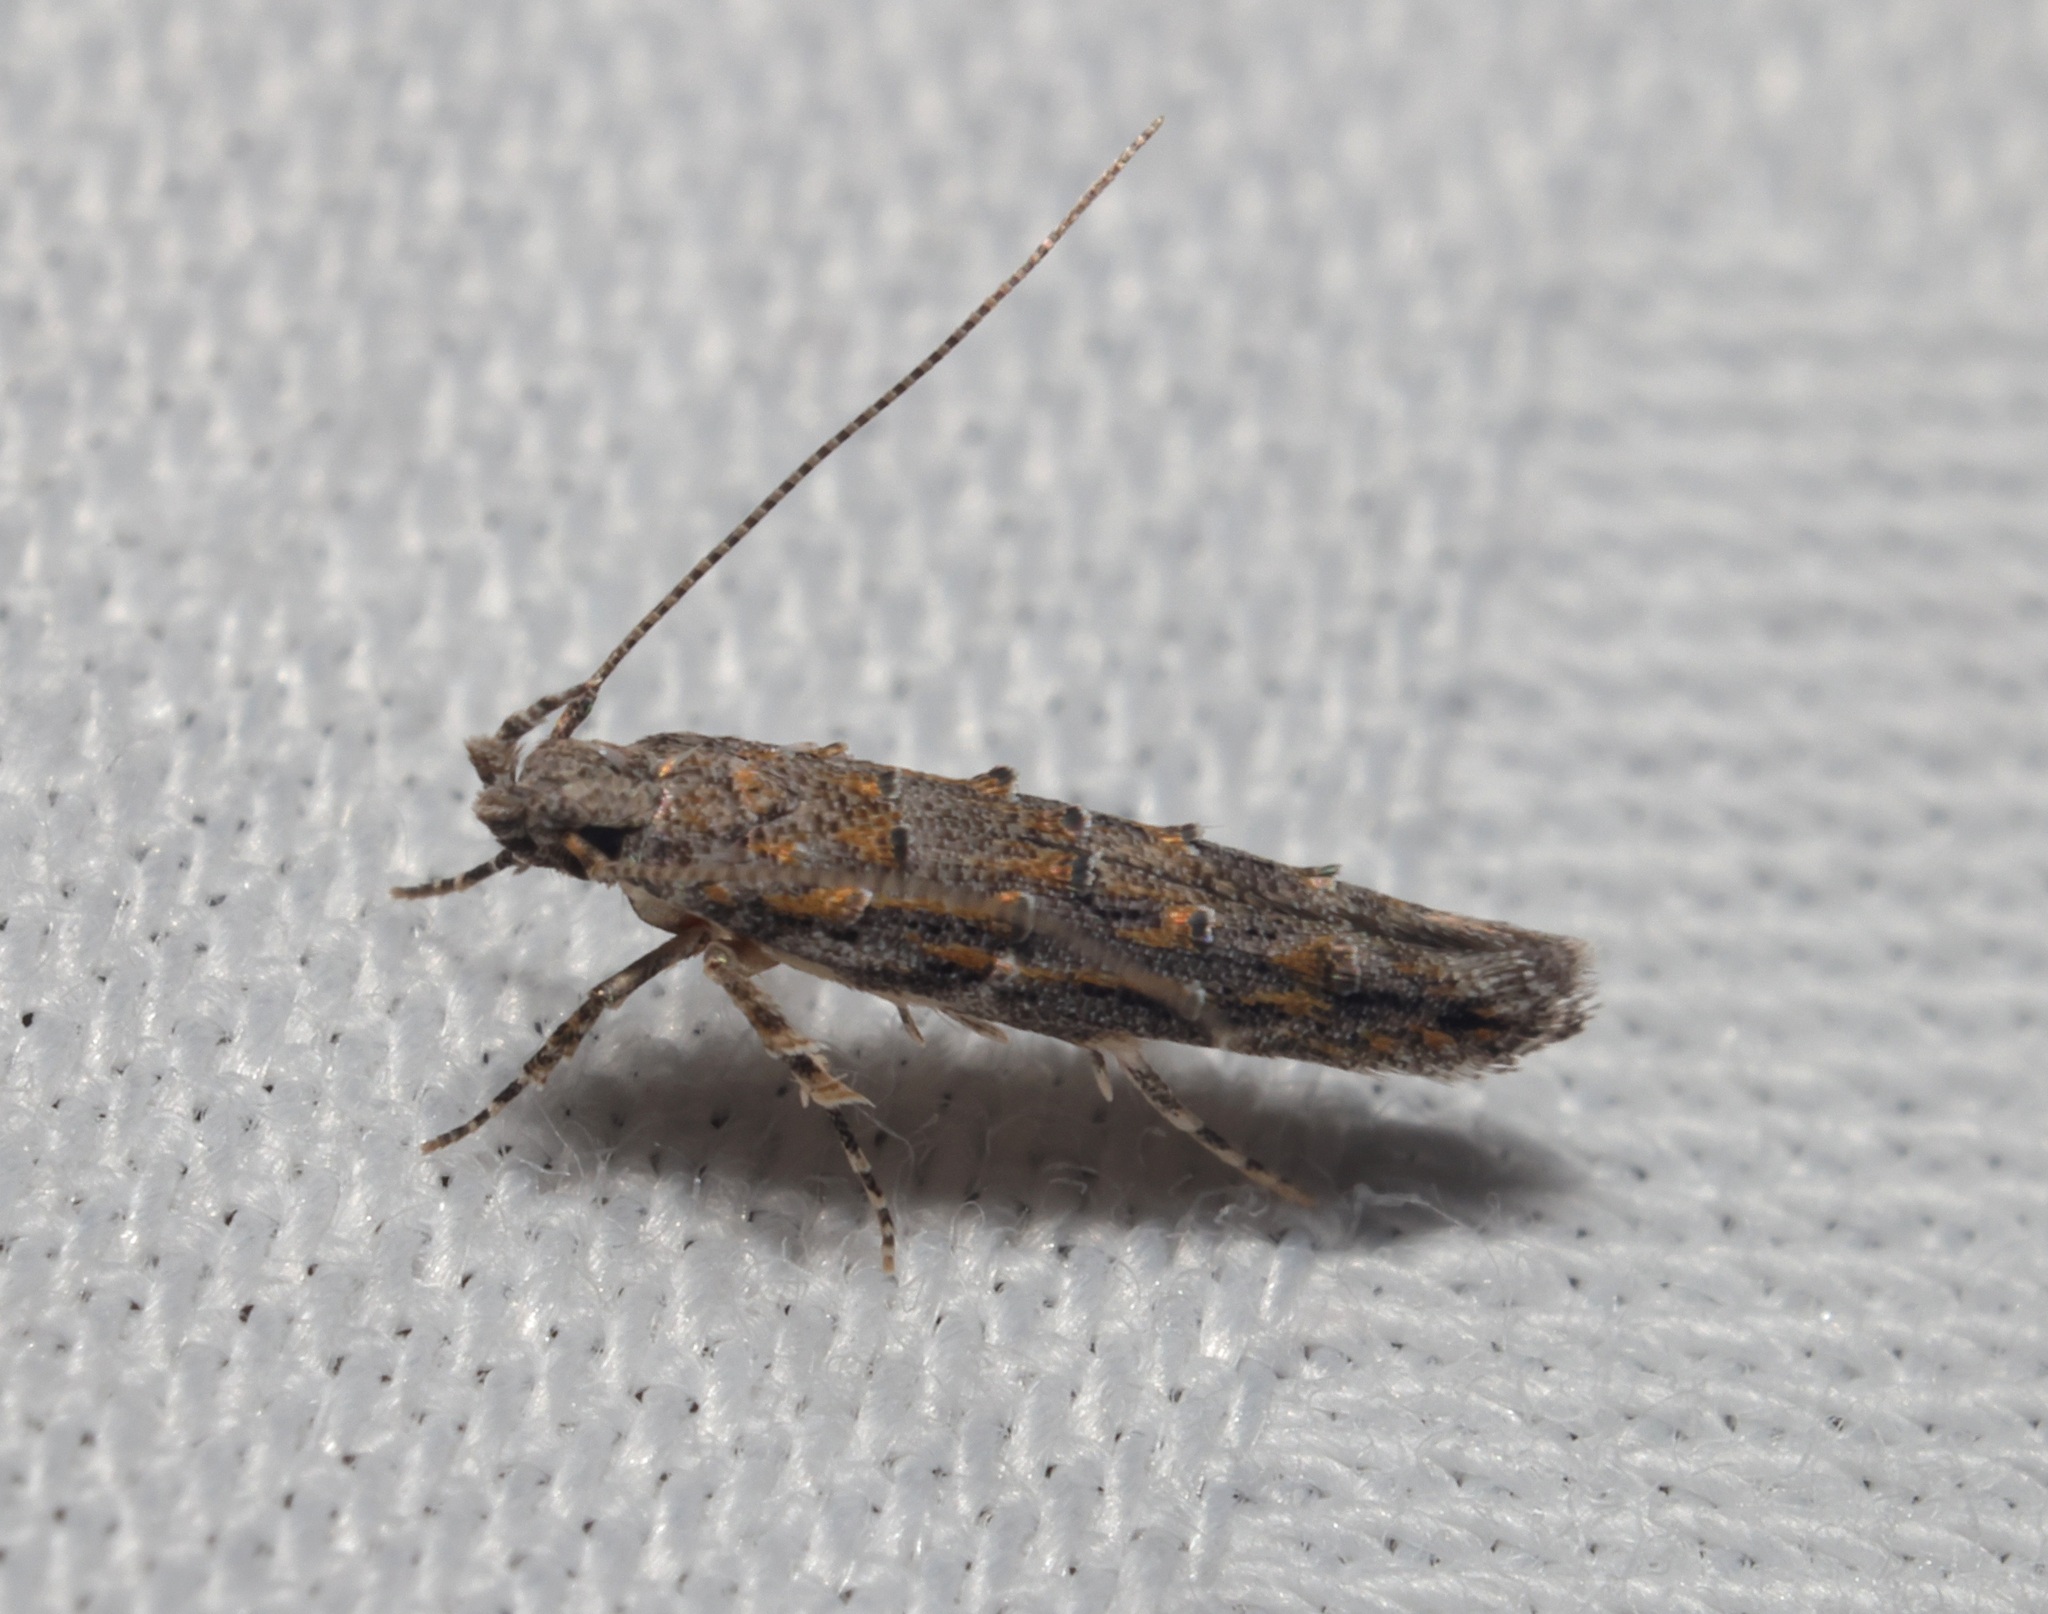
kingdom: Animalia
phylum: Arthropoda
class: Insecta
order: Lepidoptera
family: Yponomeutidae
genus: Metharmostis
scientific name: Metharmostis
